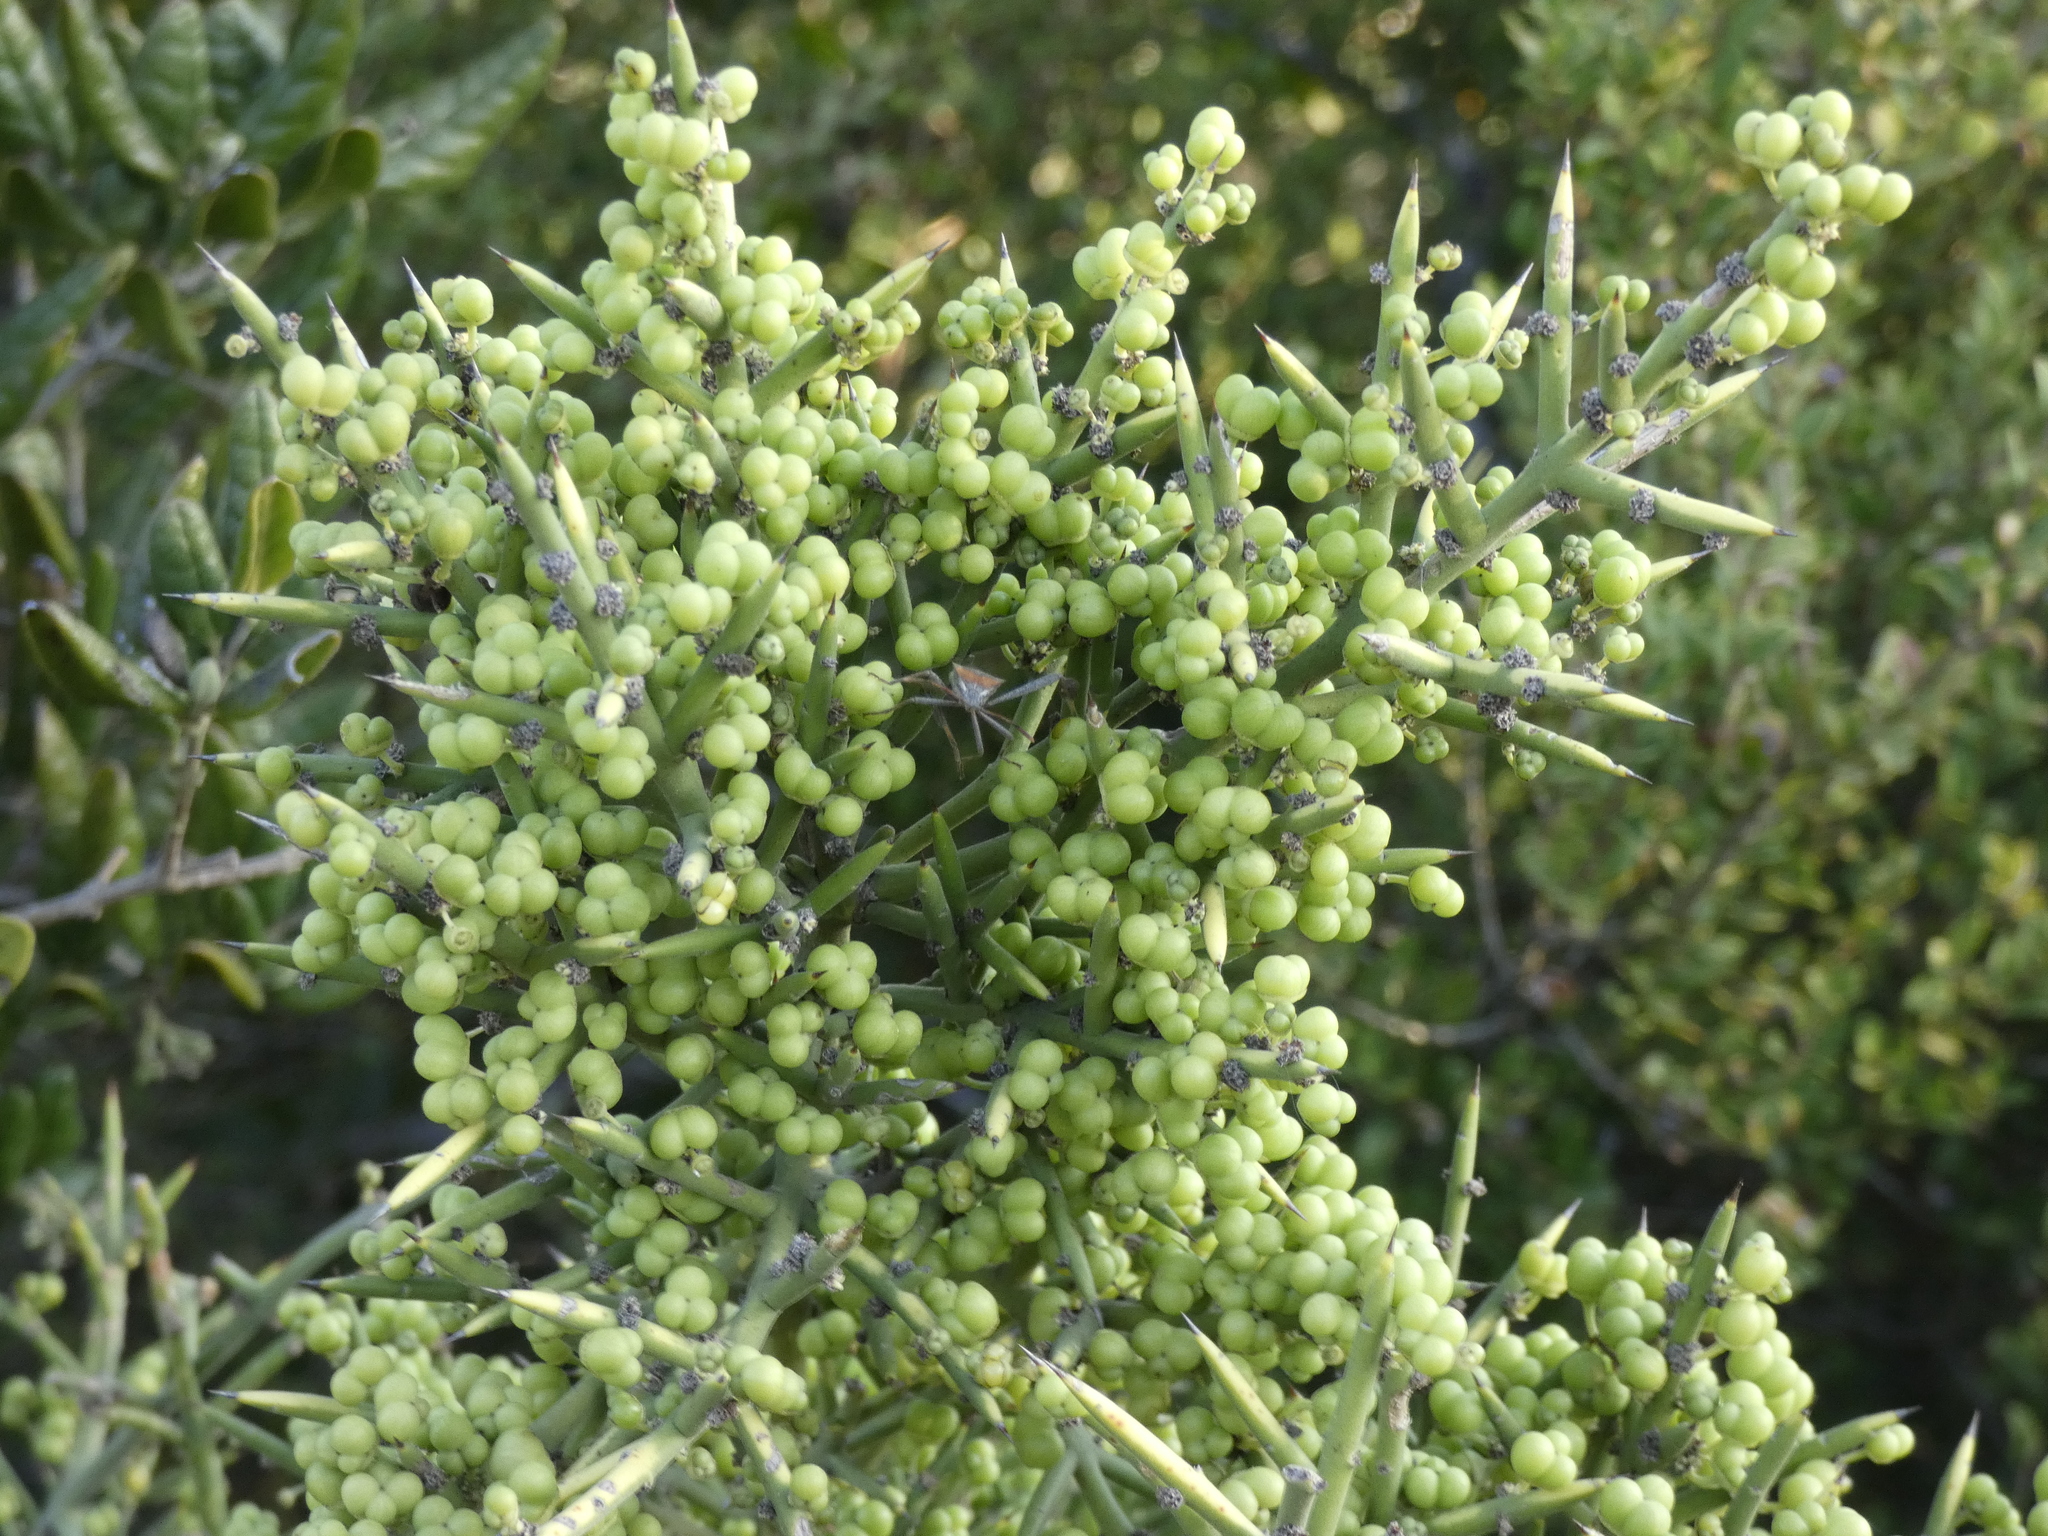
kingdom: Plantae
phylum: Tracheophyta
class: Magnoliopsida
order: Rosales
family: Rhamnaceae
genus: Colletia
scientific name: Colletia hystrix
